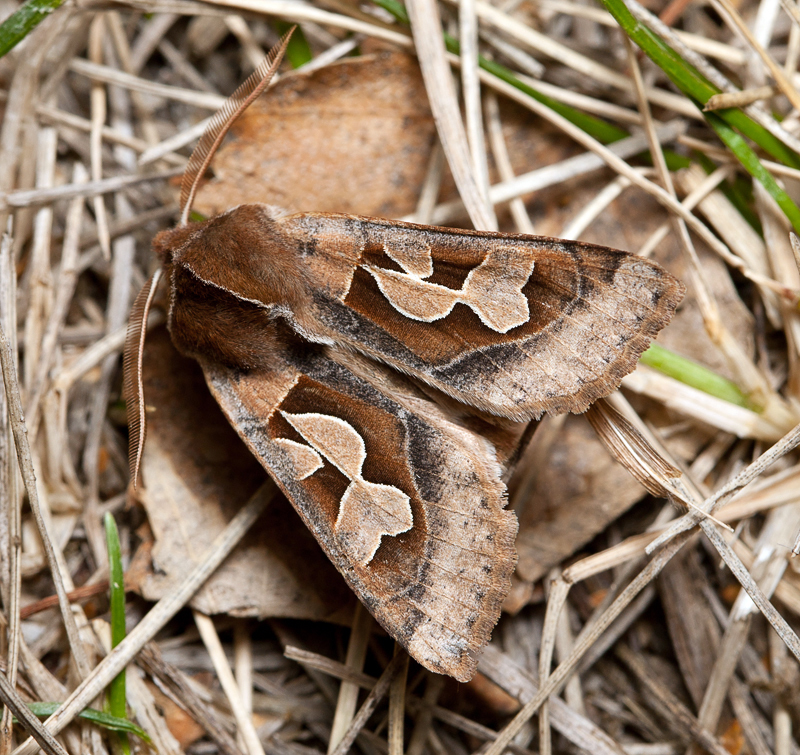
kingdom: Animalia
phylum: Arthropoda
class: Insecta
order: Lepidoptera
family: Noctuidae
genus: Perigrapha
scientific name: Perigrapha circumducta
